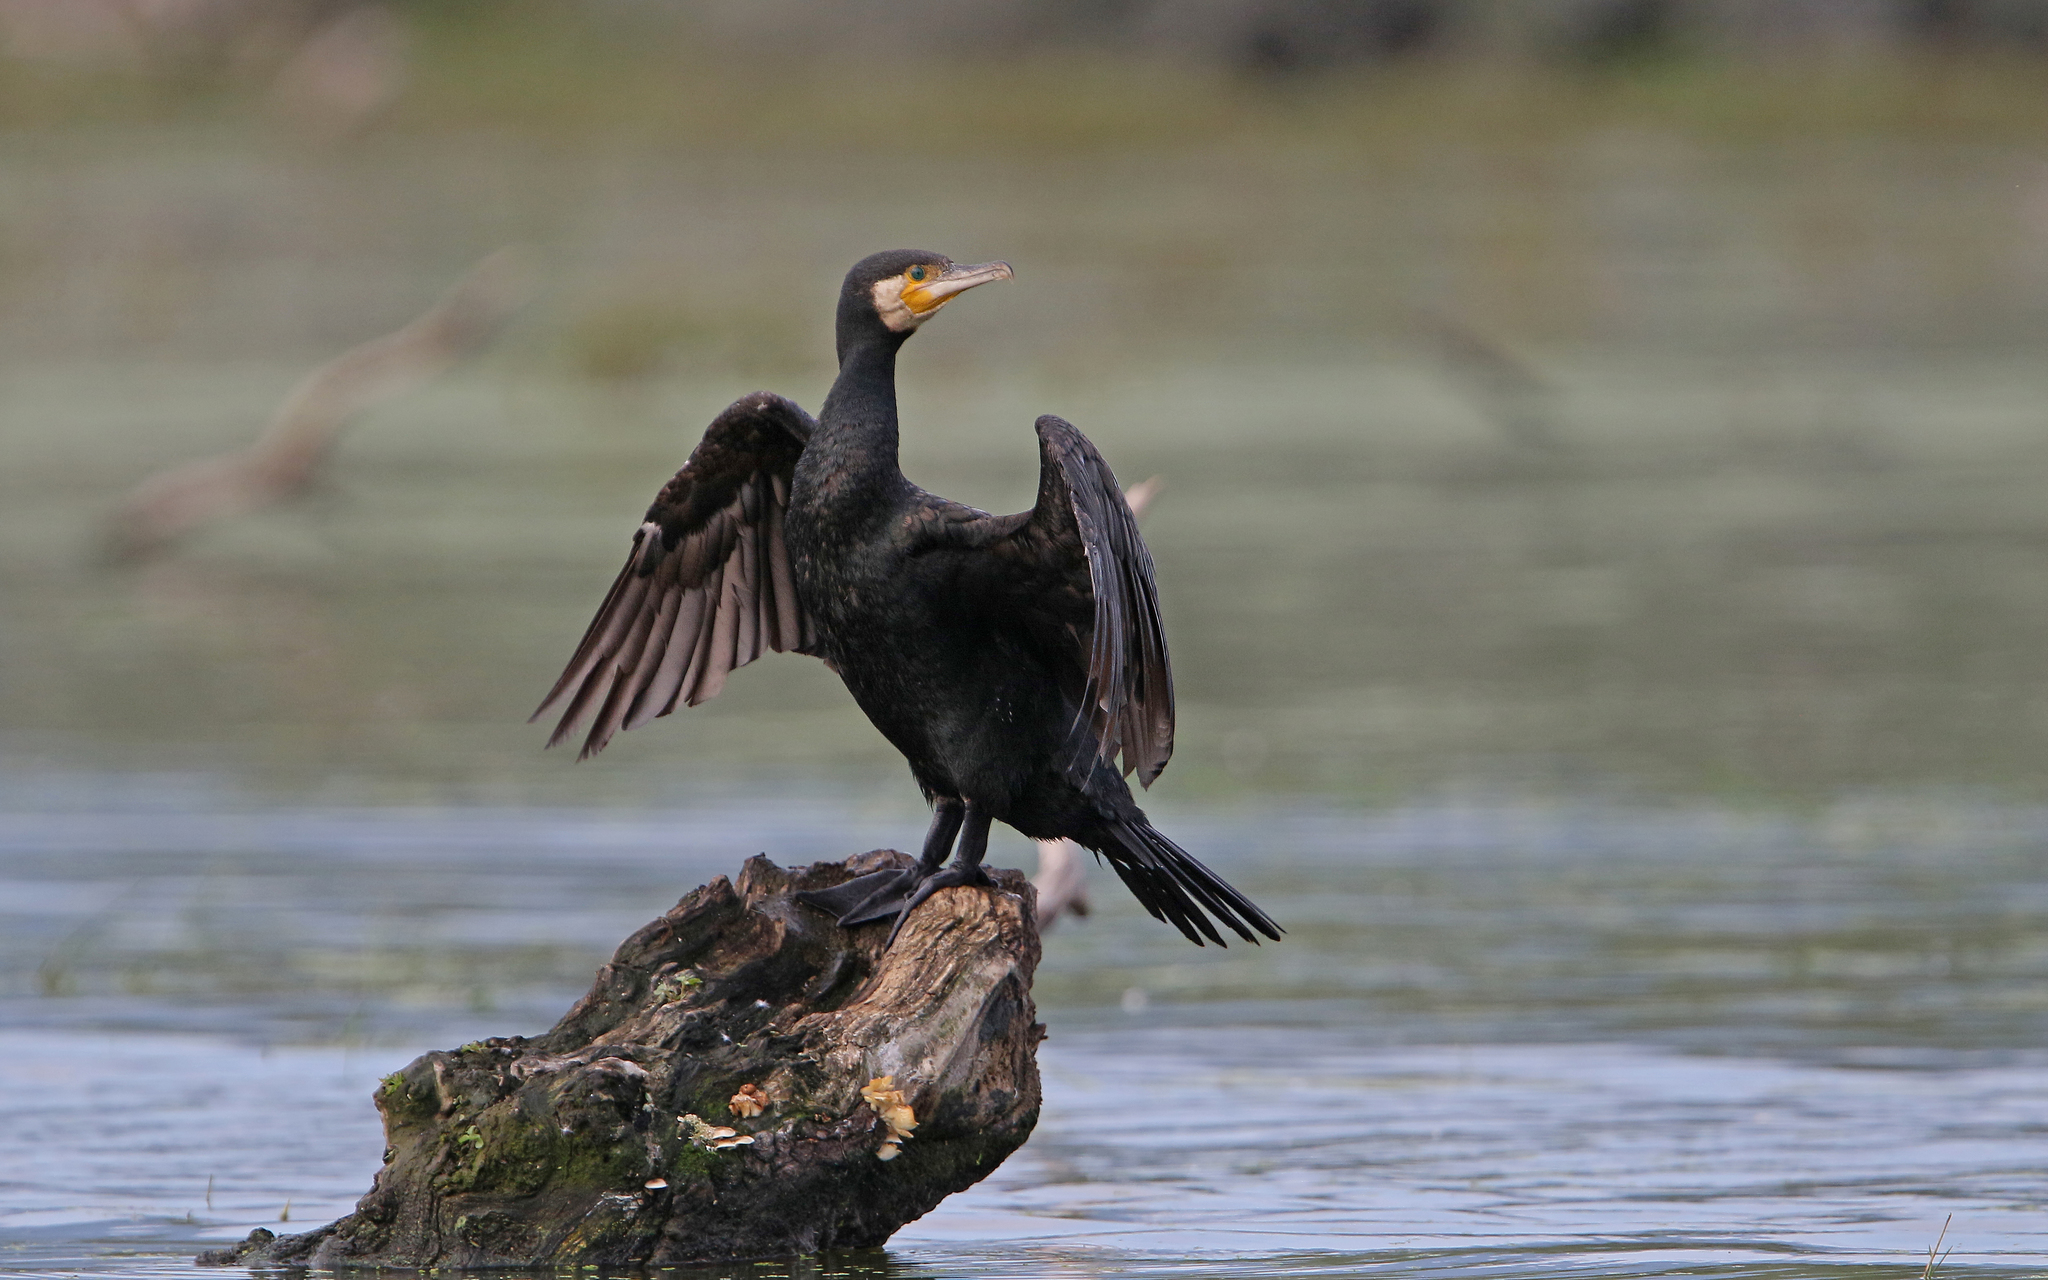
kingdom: Animalia
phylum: Chordata
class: Aves
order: Suliformes
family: Phalacrocoracidae
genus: Phalacrocorax
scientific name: Phalacrocorax carbo
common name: Great cormorant
